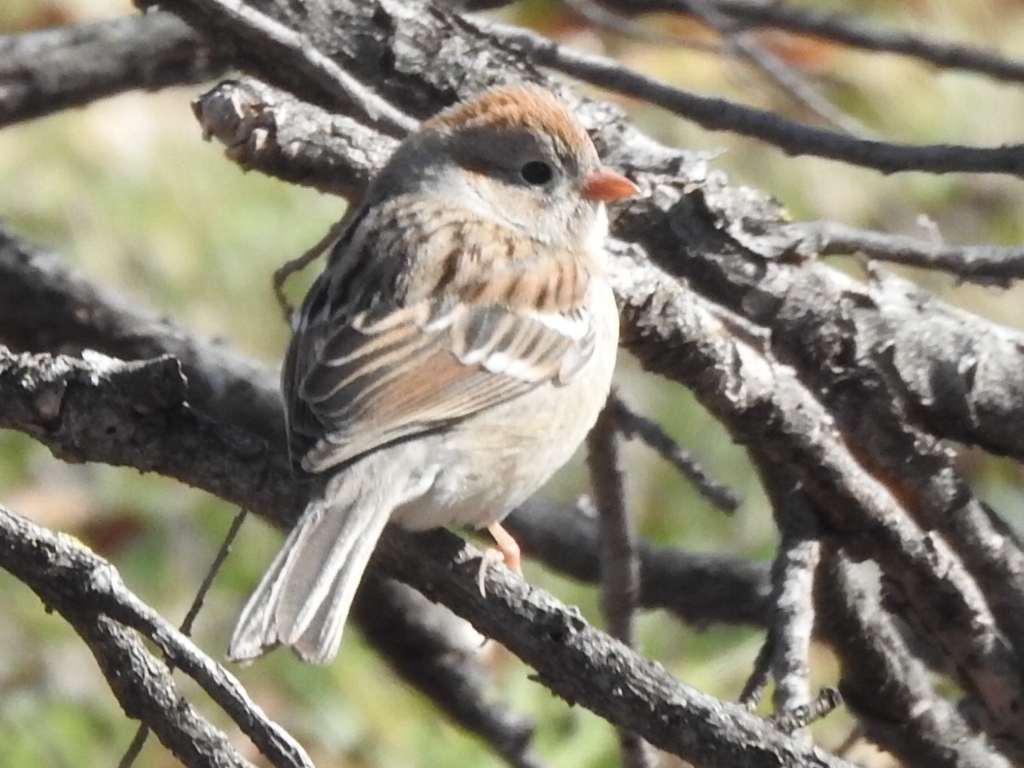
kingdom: Animalia
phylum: Chordata
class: Aves
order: Passeriformes
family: Passerellidae
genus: Spizella
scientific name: Spizella pusilla
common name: Field sparrow
